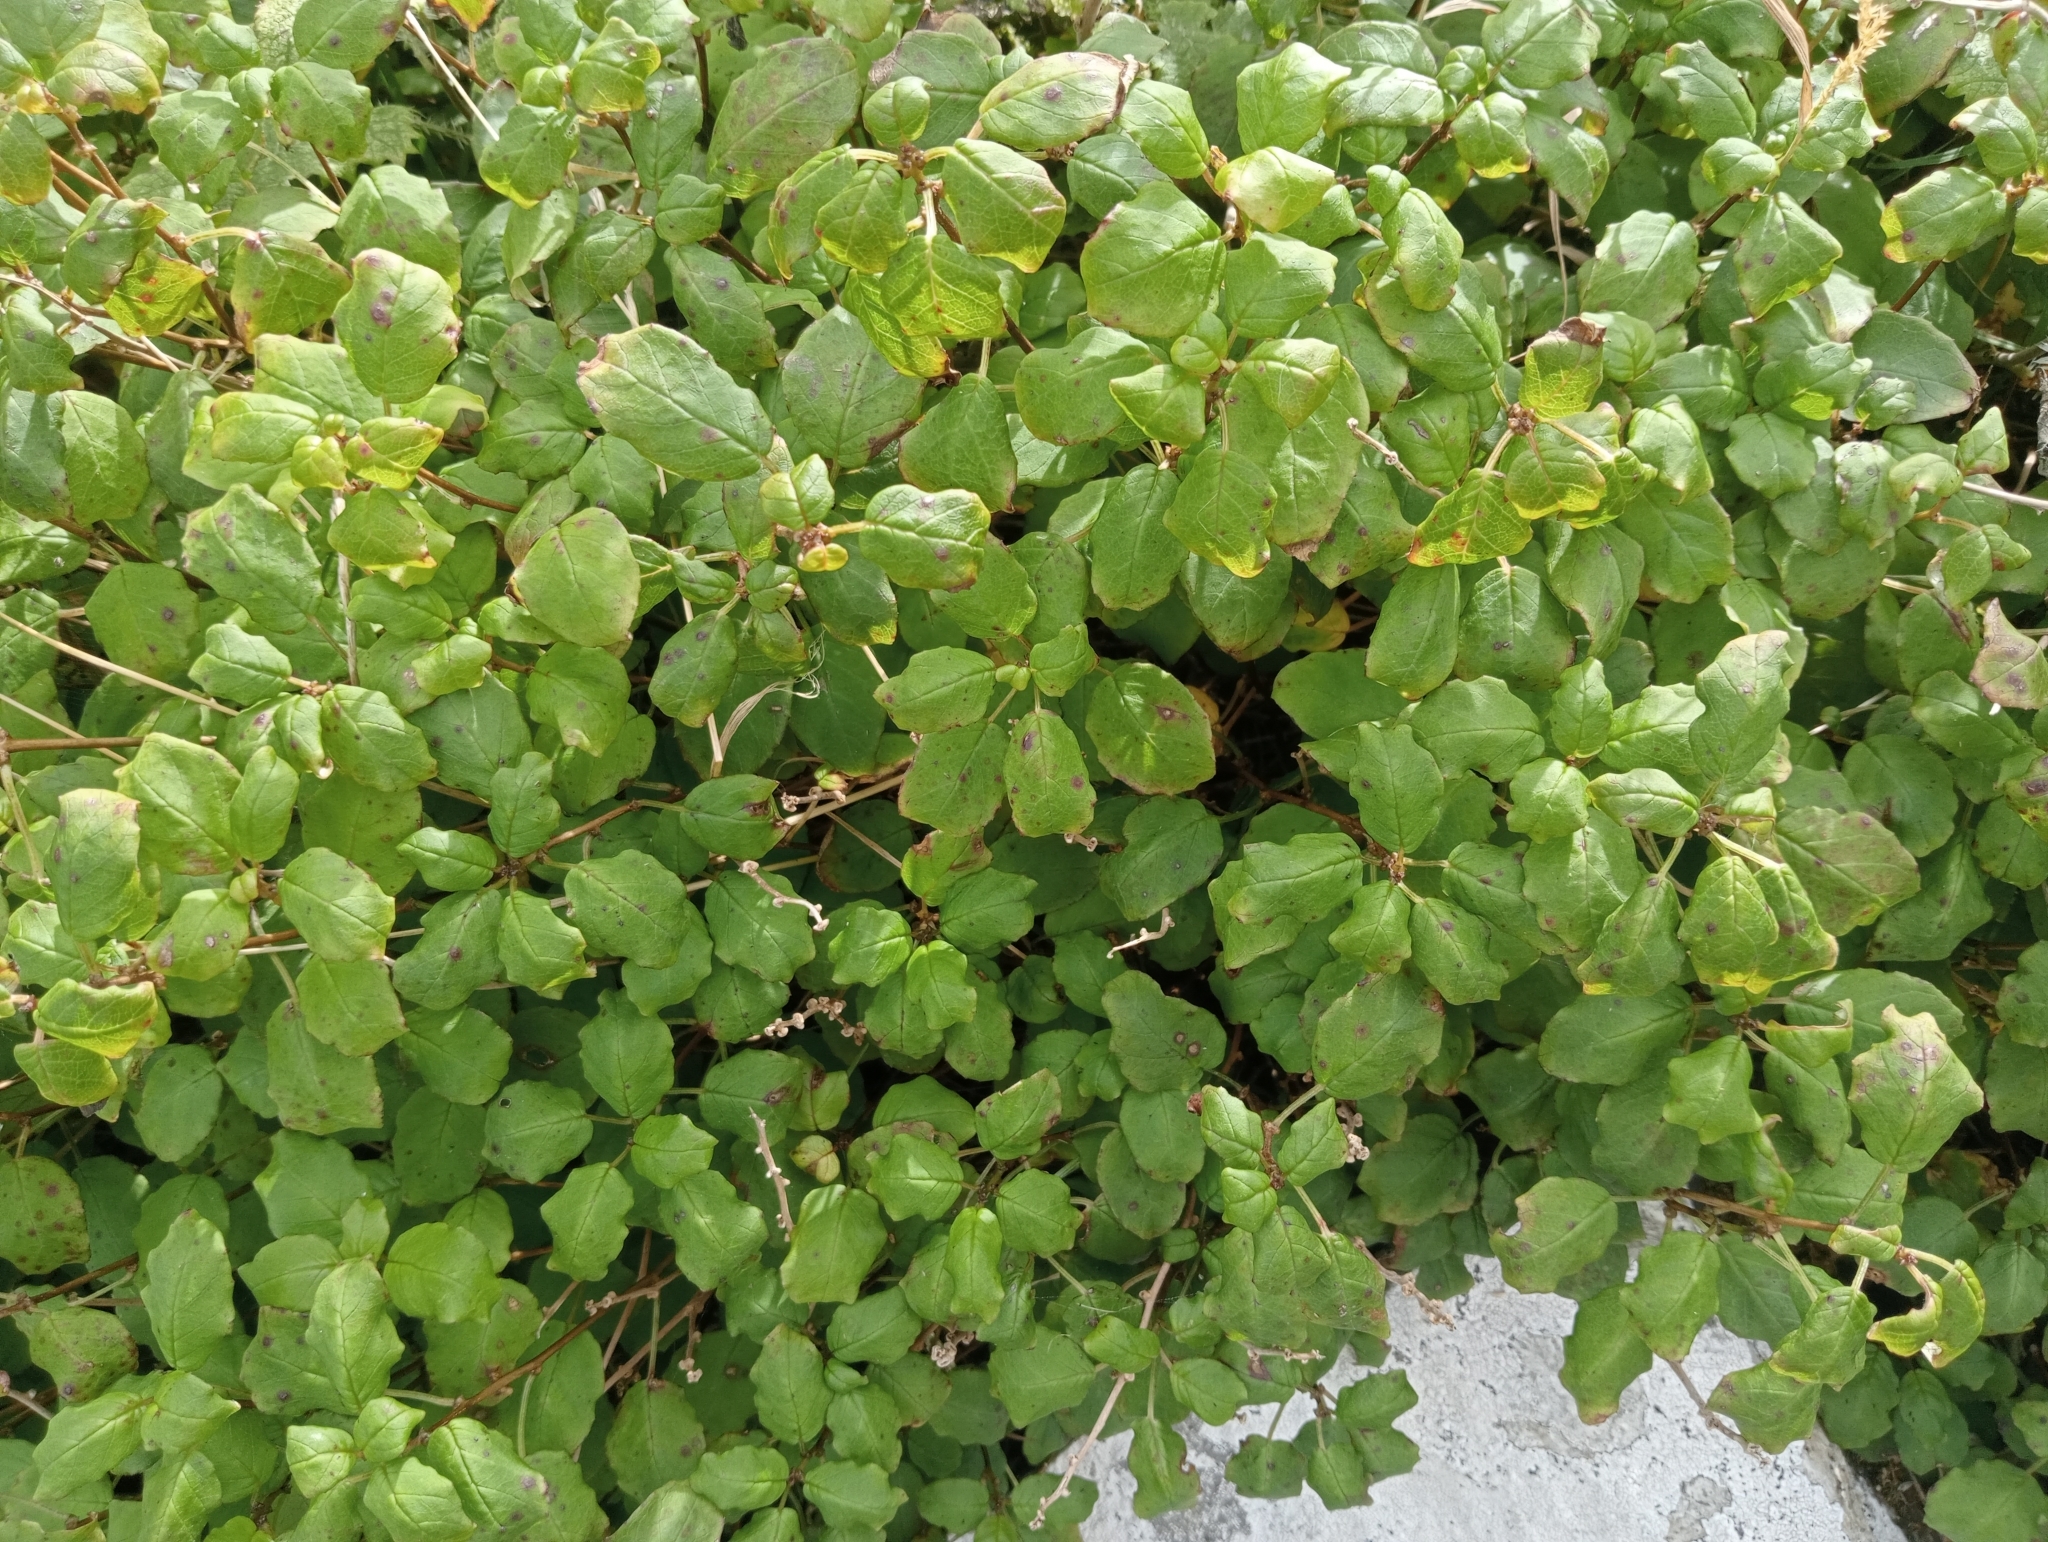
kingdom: Plantae
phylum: Tracheophyta
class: Magnoliopsida
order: Myrtales
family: Onagraceae
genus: Fuchsia
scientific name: Fuchsia perscandens
